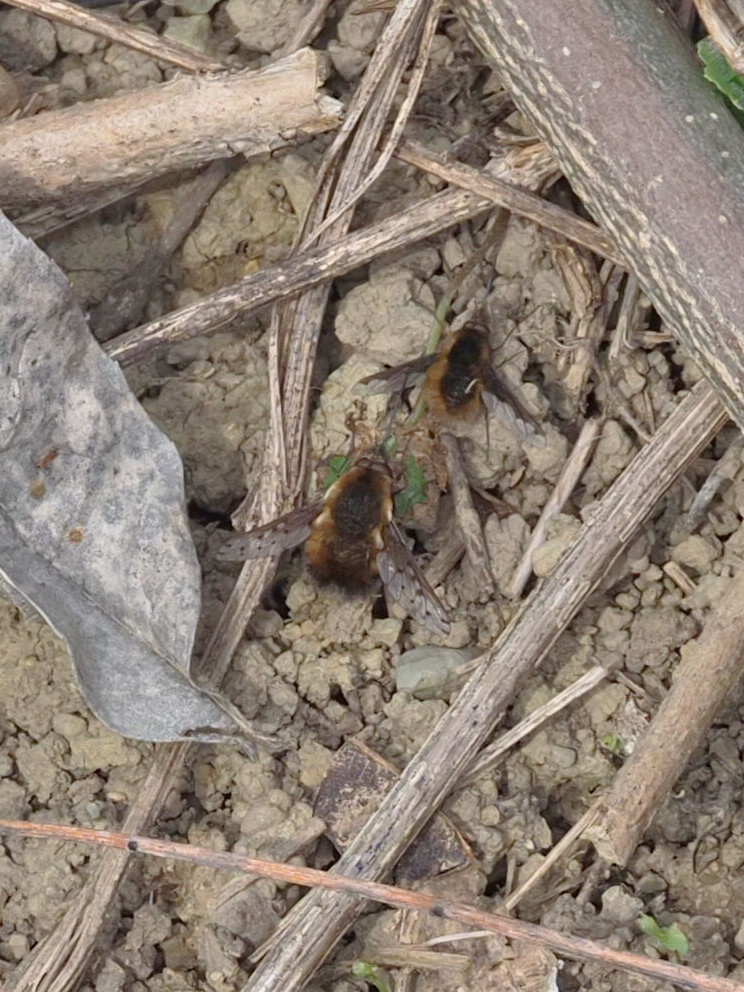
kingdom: Animalia
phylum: Arthropoda
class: Insecta
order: Diptera
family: Bombyliidae
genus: Bombylius
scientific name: Bombylius major
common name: Bee fly
